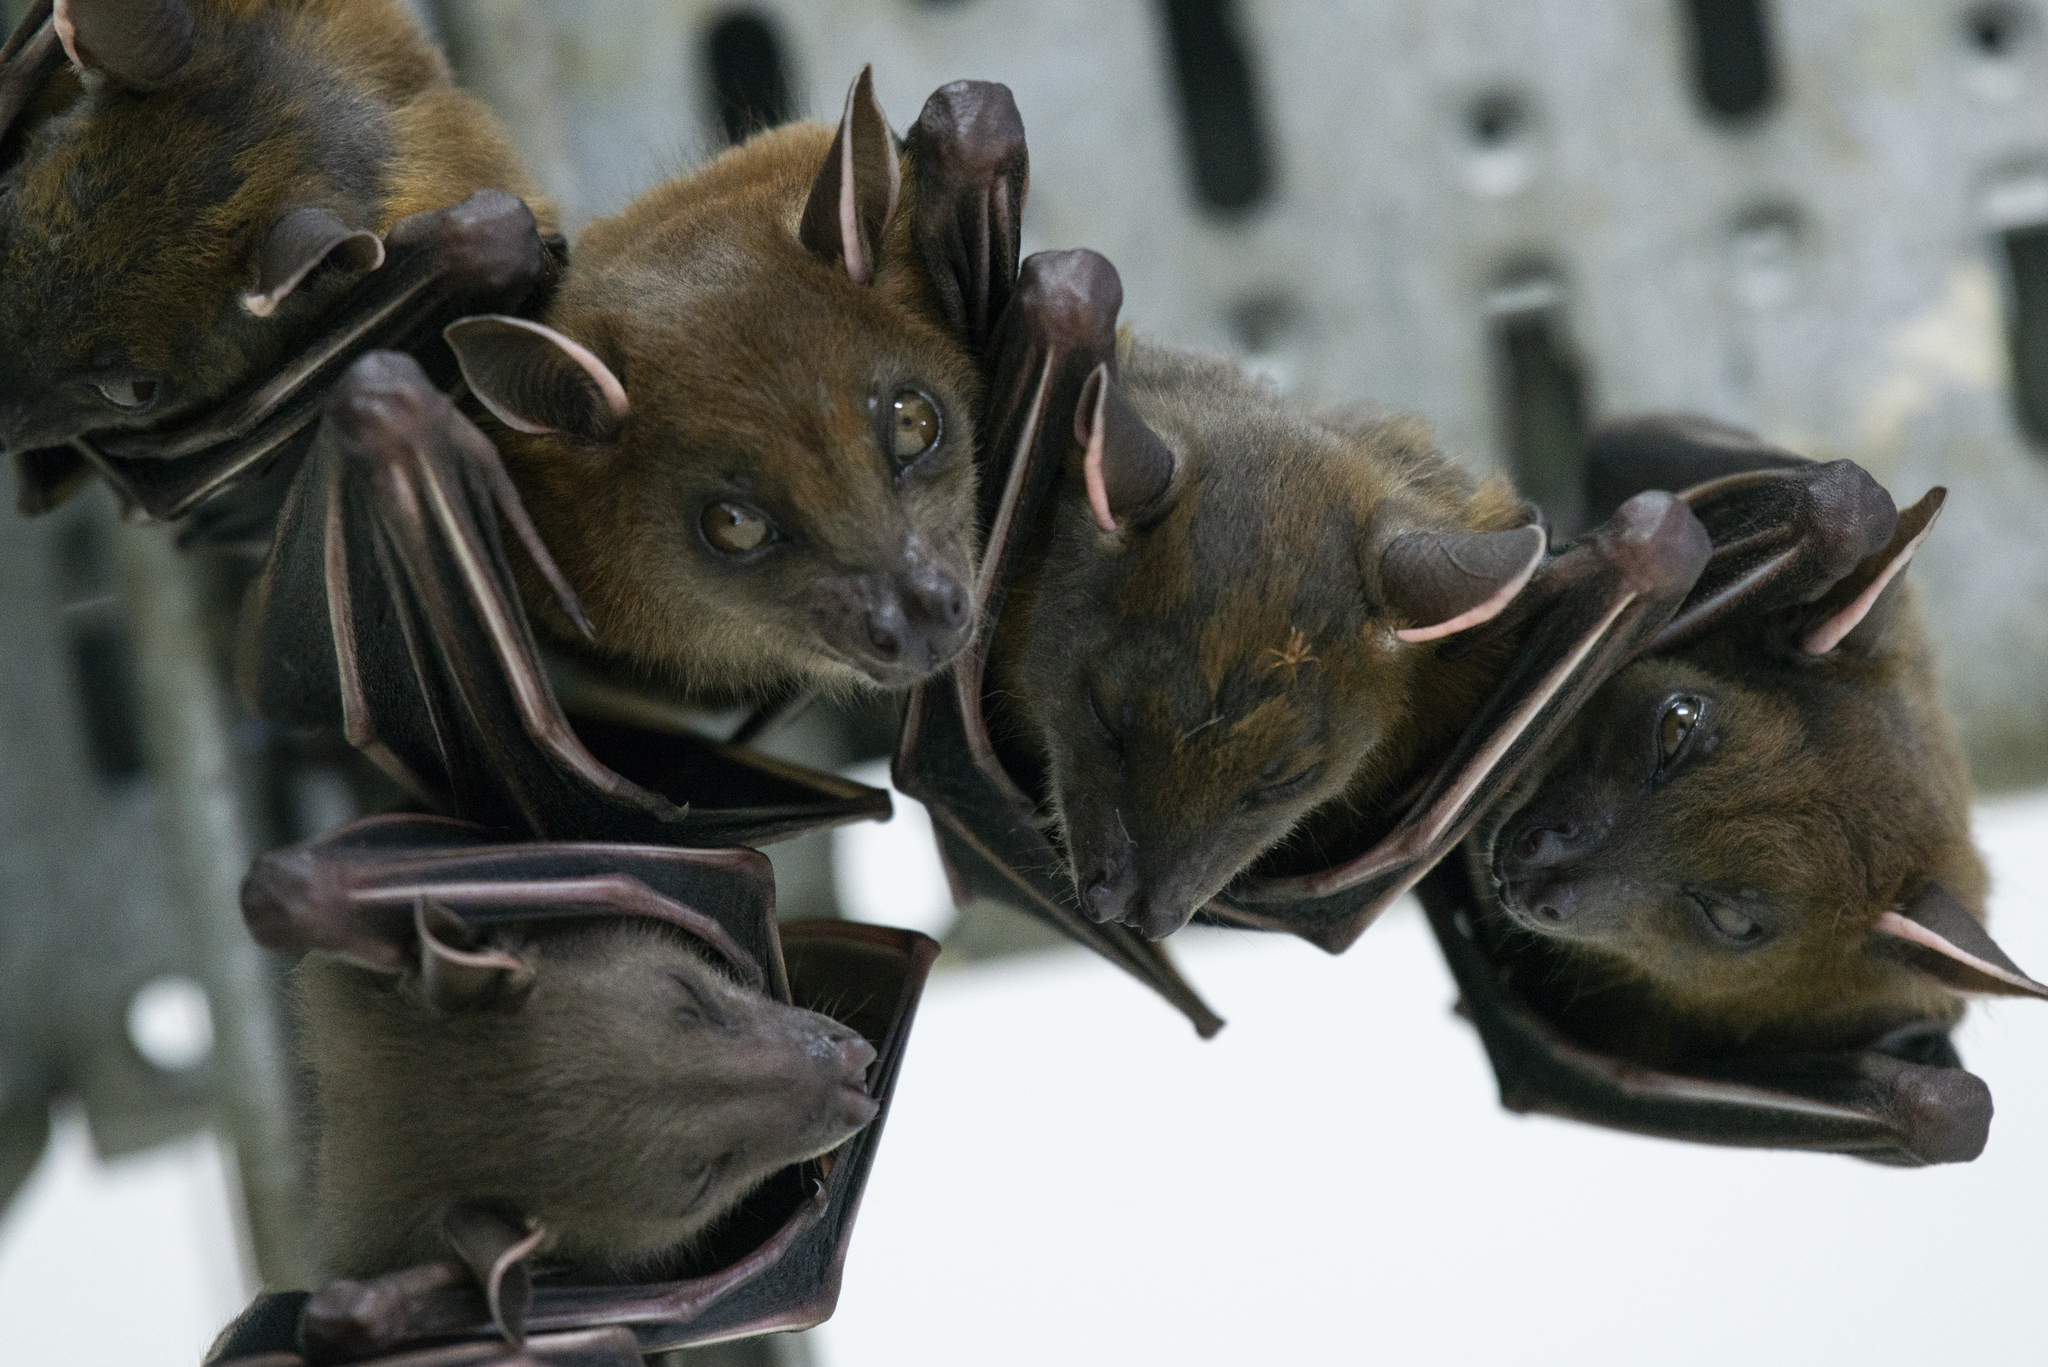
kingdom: Animalia
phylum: Chordata
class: Mammalia
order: Chiroptera
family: Pteropodidae
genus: Cynopterus
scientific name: Cynopterus sphinx
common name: Greater short-nosed fruit bat
